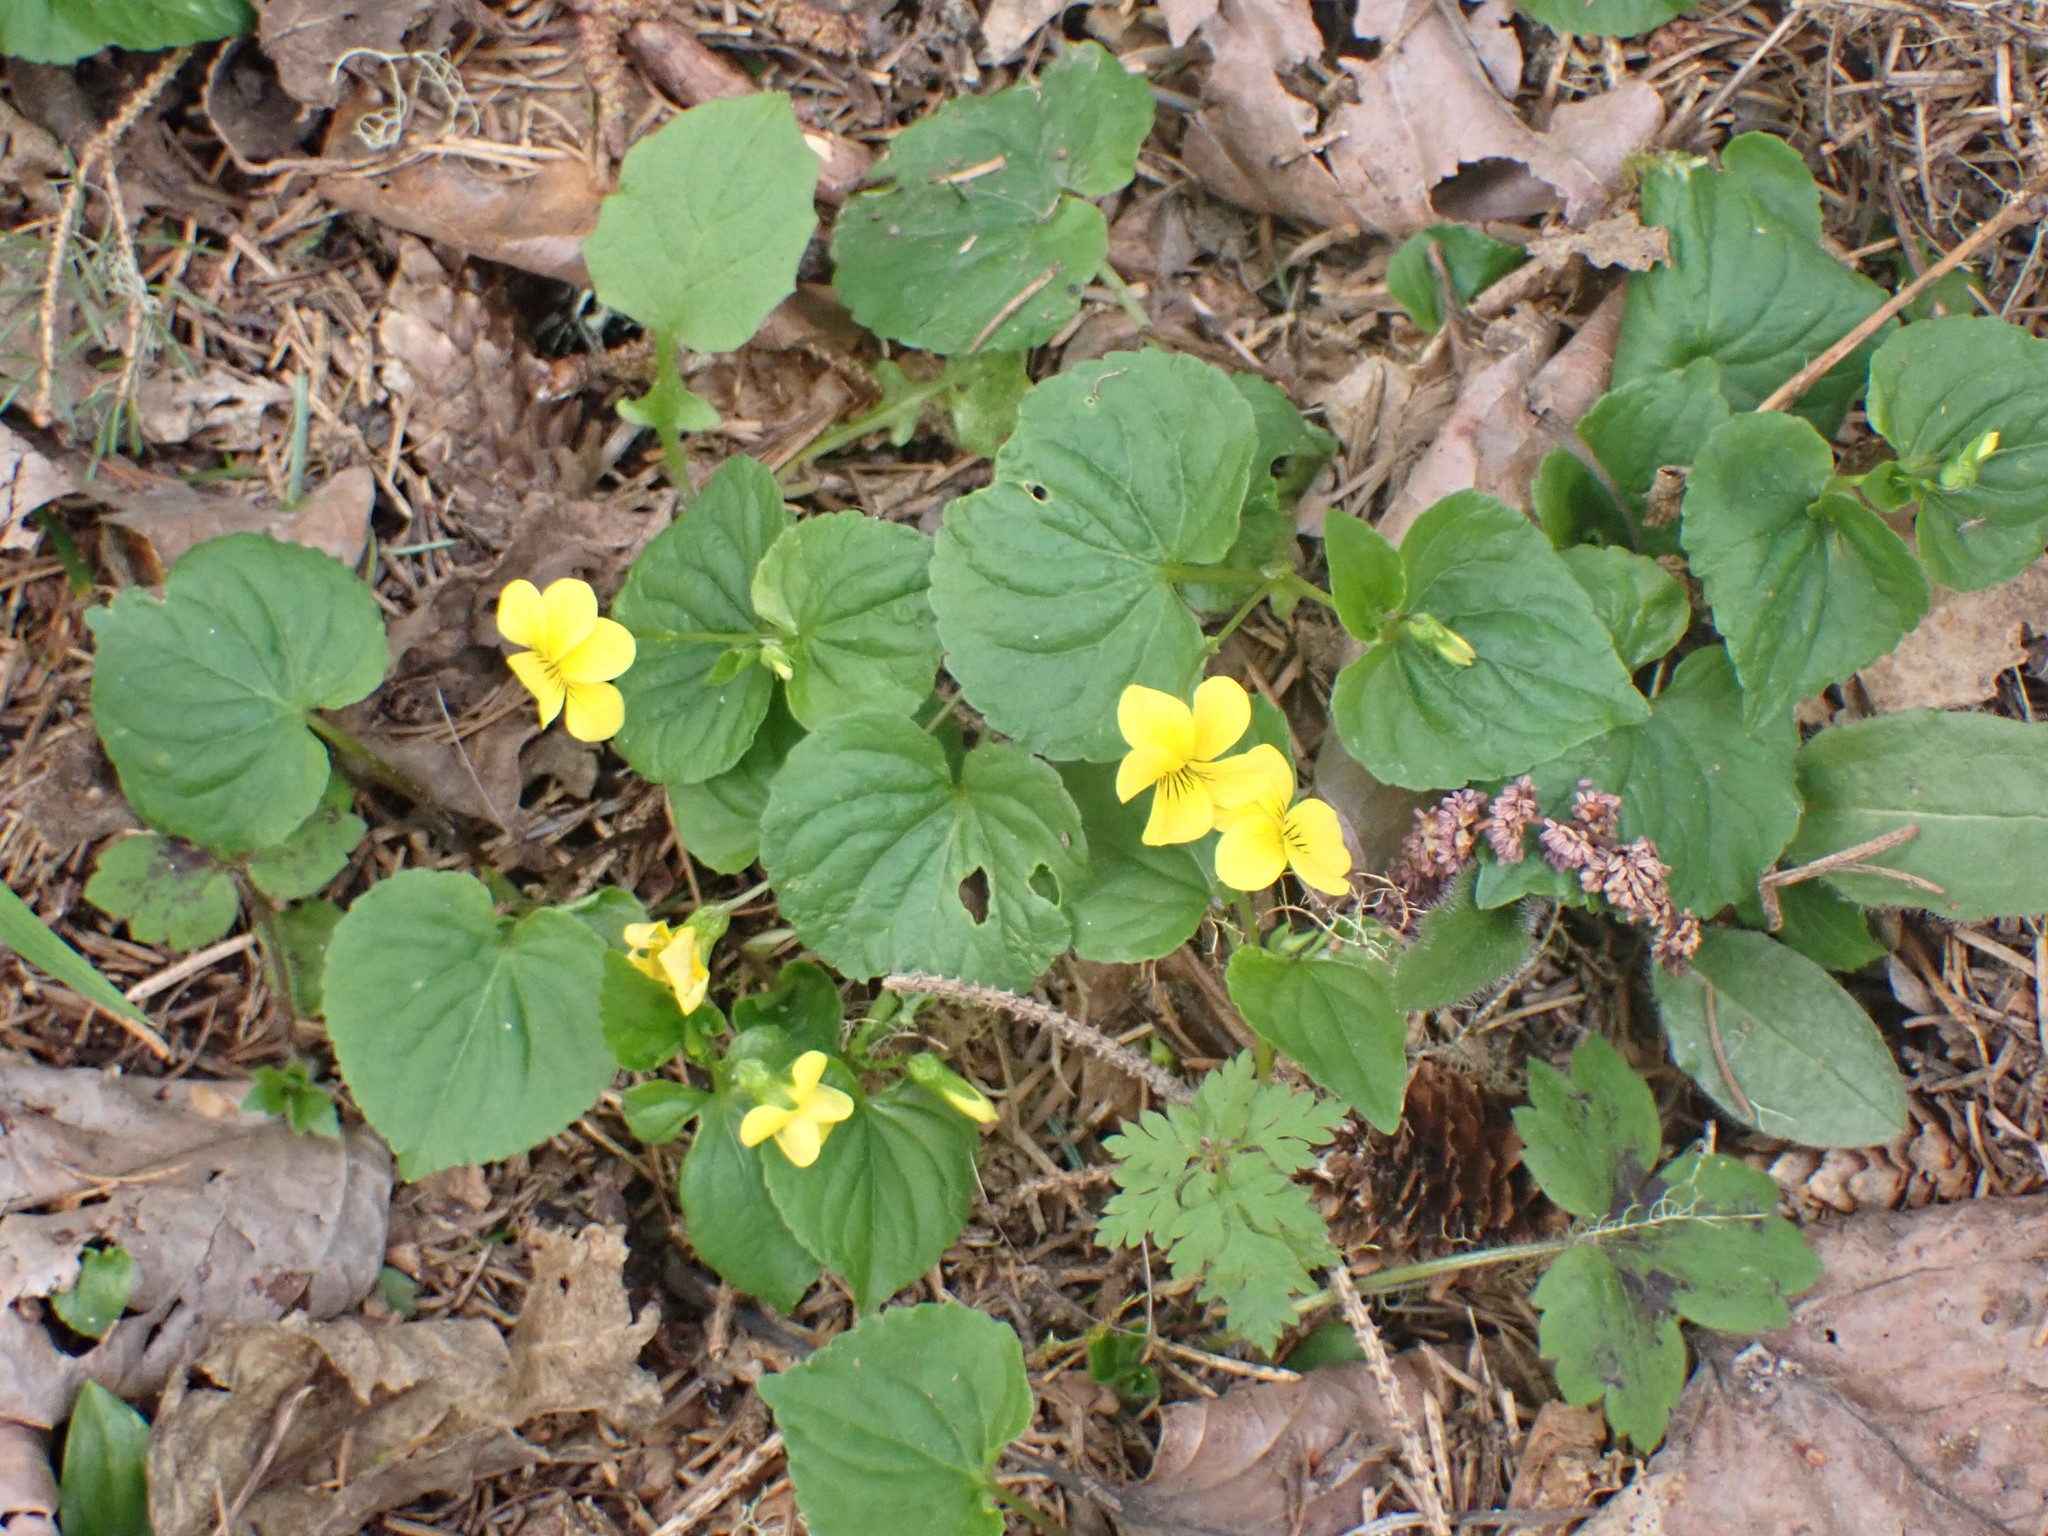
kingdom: Plantae
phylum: Tracheophyta
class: Magnoliopsida
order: Malpighiales
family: Violaceae
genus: Viola
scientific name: Viola glabella
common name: Stream violet
